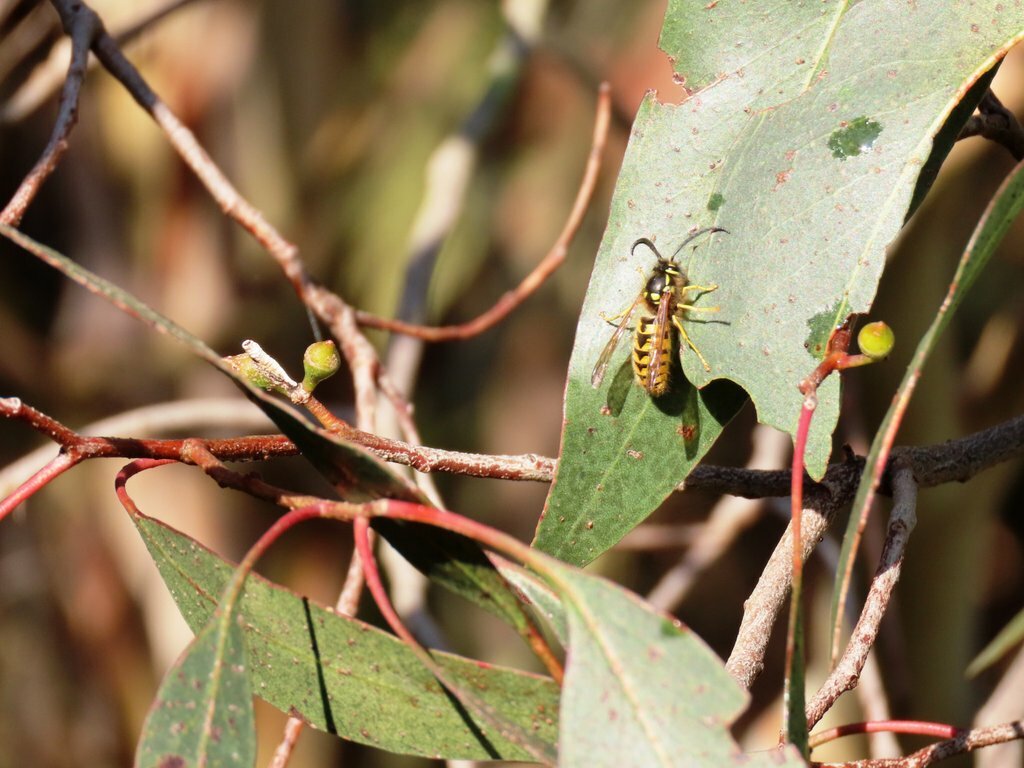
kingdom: Animalia
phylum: Arthropoda
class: Insecta
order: Hymenoptera
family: Vespidae
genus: Vespula
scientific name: Vespula germanica
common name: German wasp
